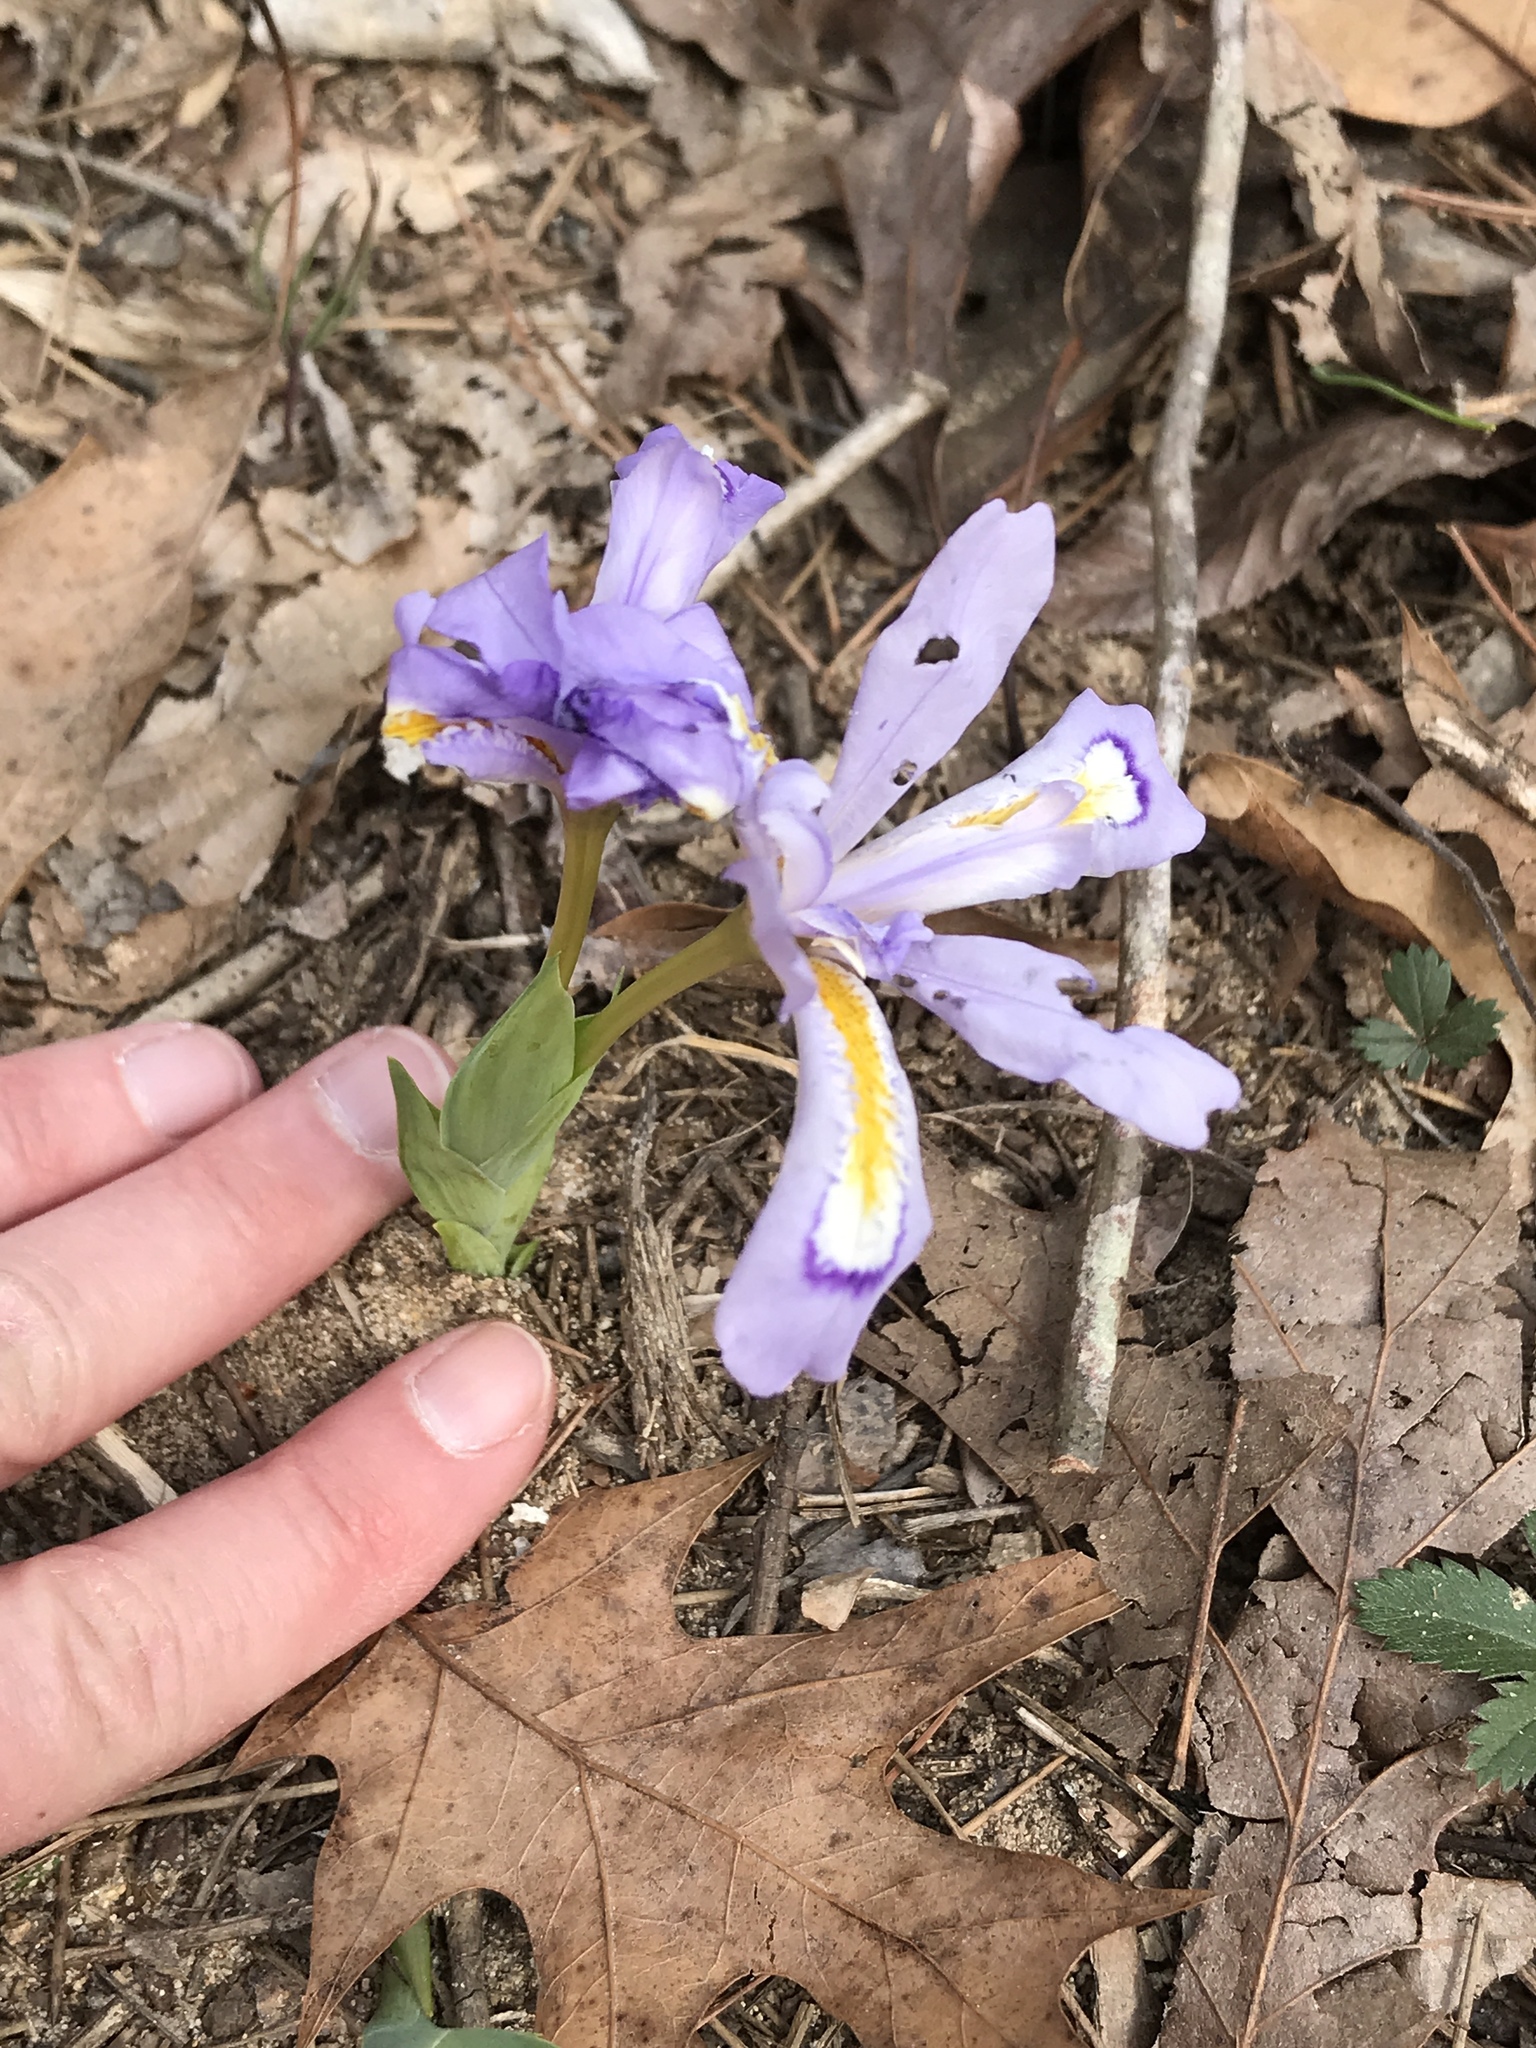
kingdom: Plantae
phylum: Tracheophyta
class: Liliopsida
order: Asparagales
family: Iridaceae
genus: Iris
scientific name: Iris cristata
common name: Crested iris
